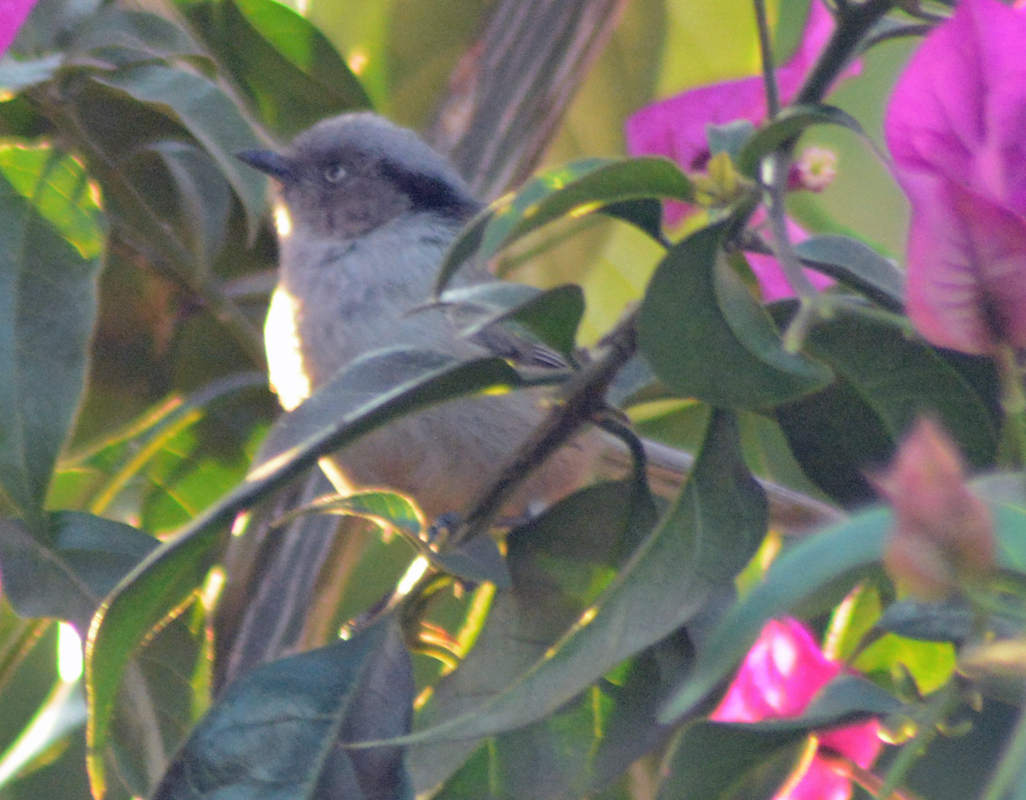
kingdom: Animalia
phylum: Chordata
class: Aves
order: Passeriformes
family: Aegithalidae
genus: Psaltriparus
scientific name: Psaltriparus minimus
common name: American bushtit
